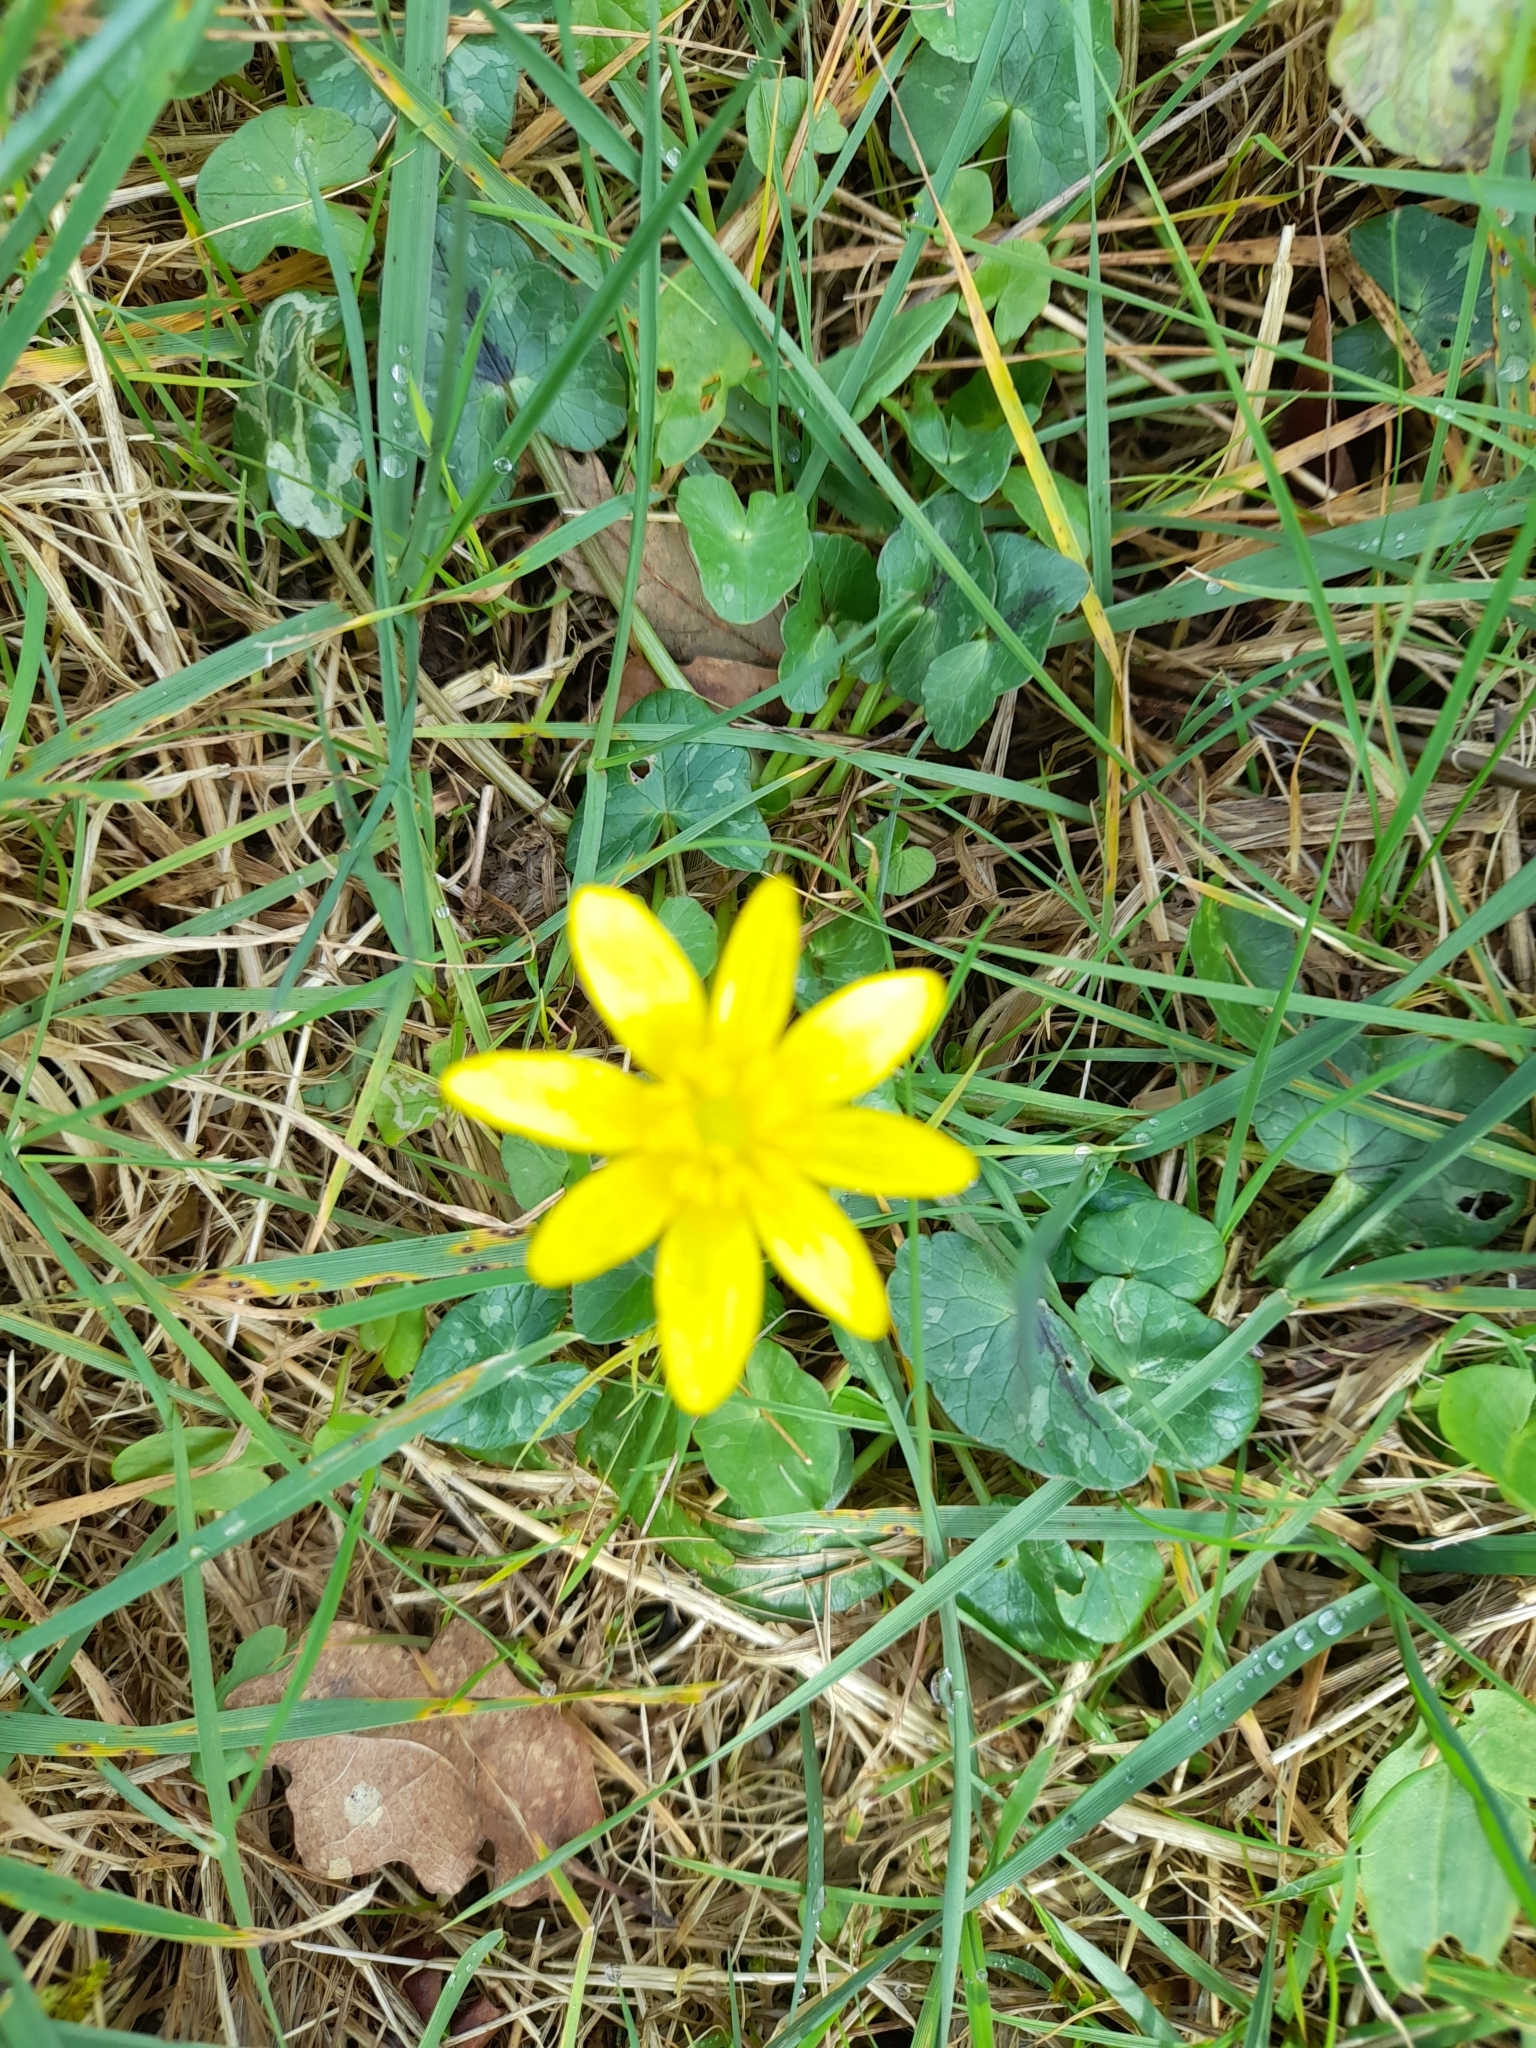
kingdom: Plantae
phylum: Tracheophyta
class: Magnoliopsida
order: Ranunculales
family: Ranunculaceae
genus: Ficaria
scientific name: Ficaria verna
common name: Lesser celandine
